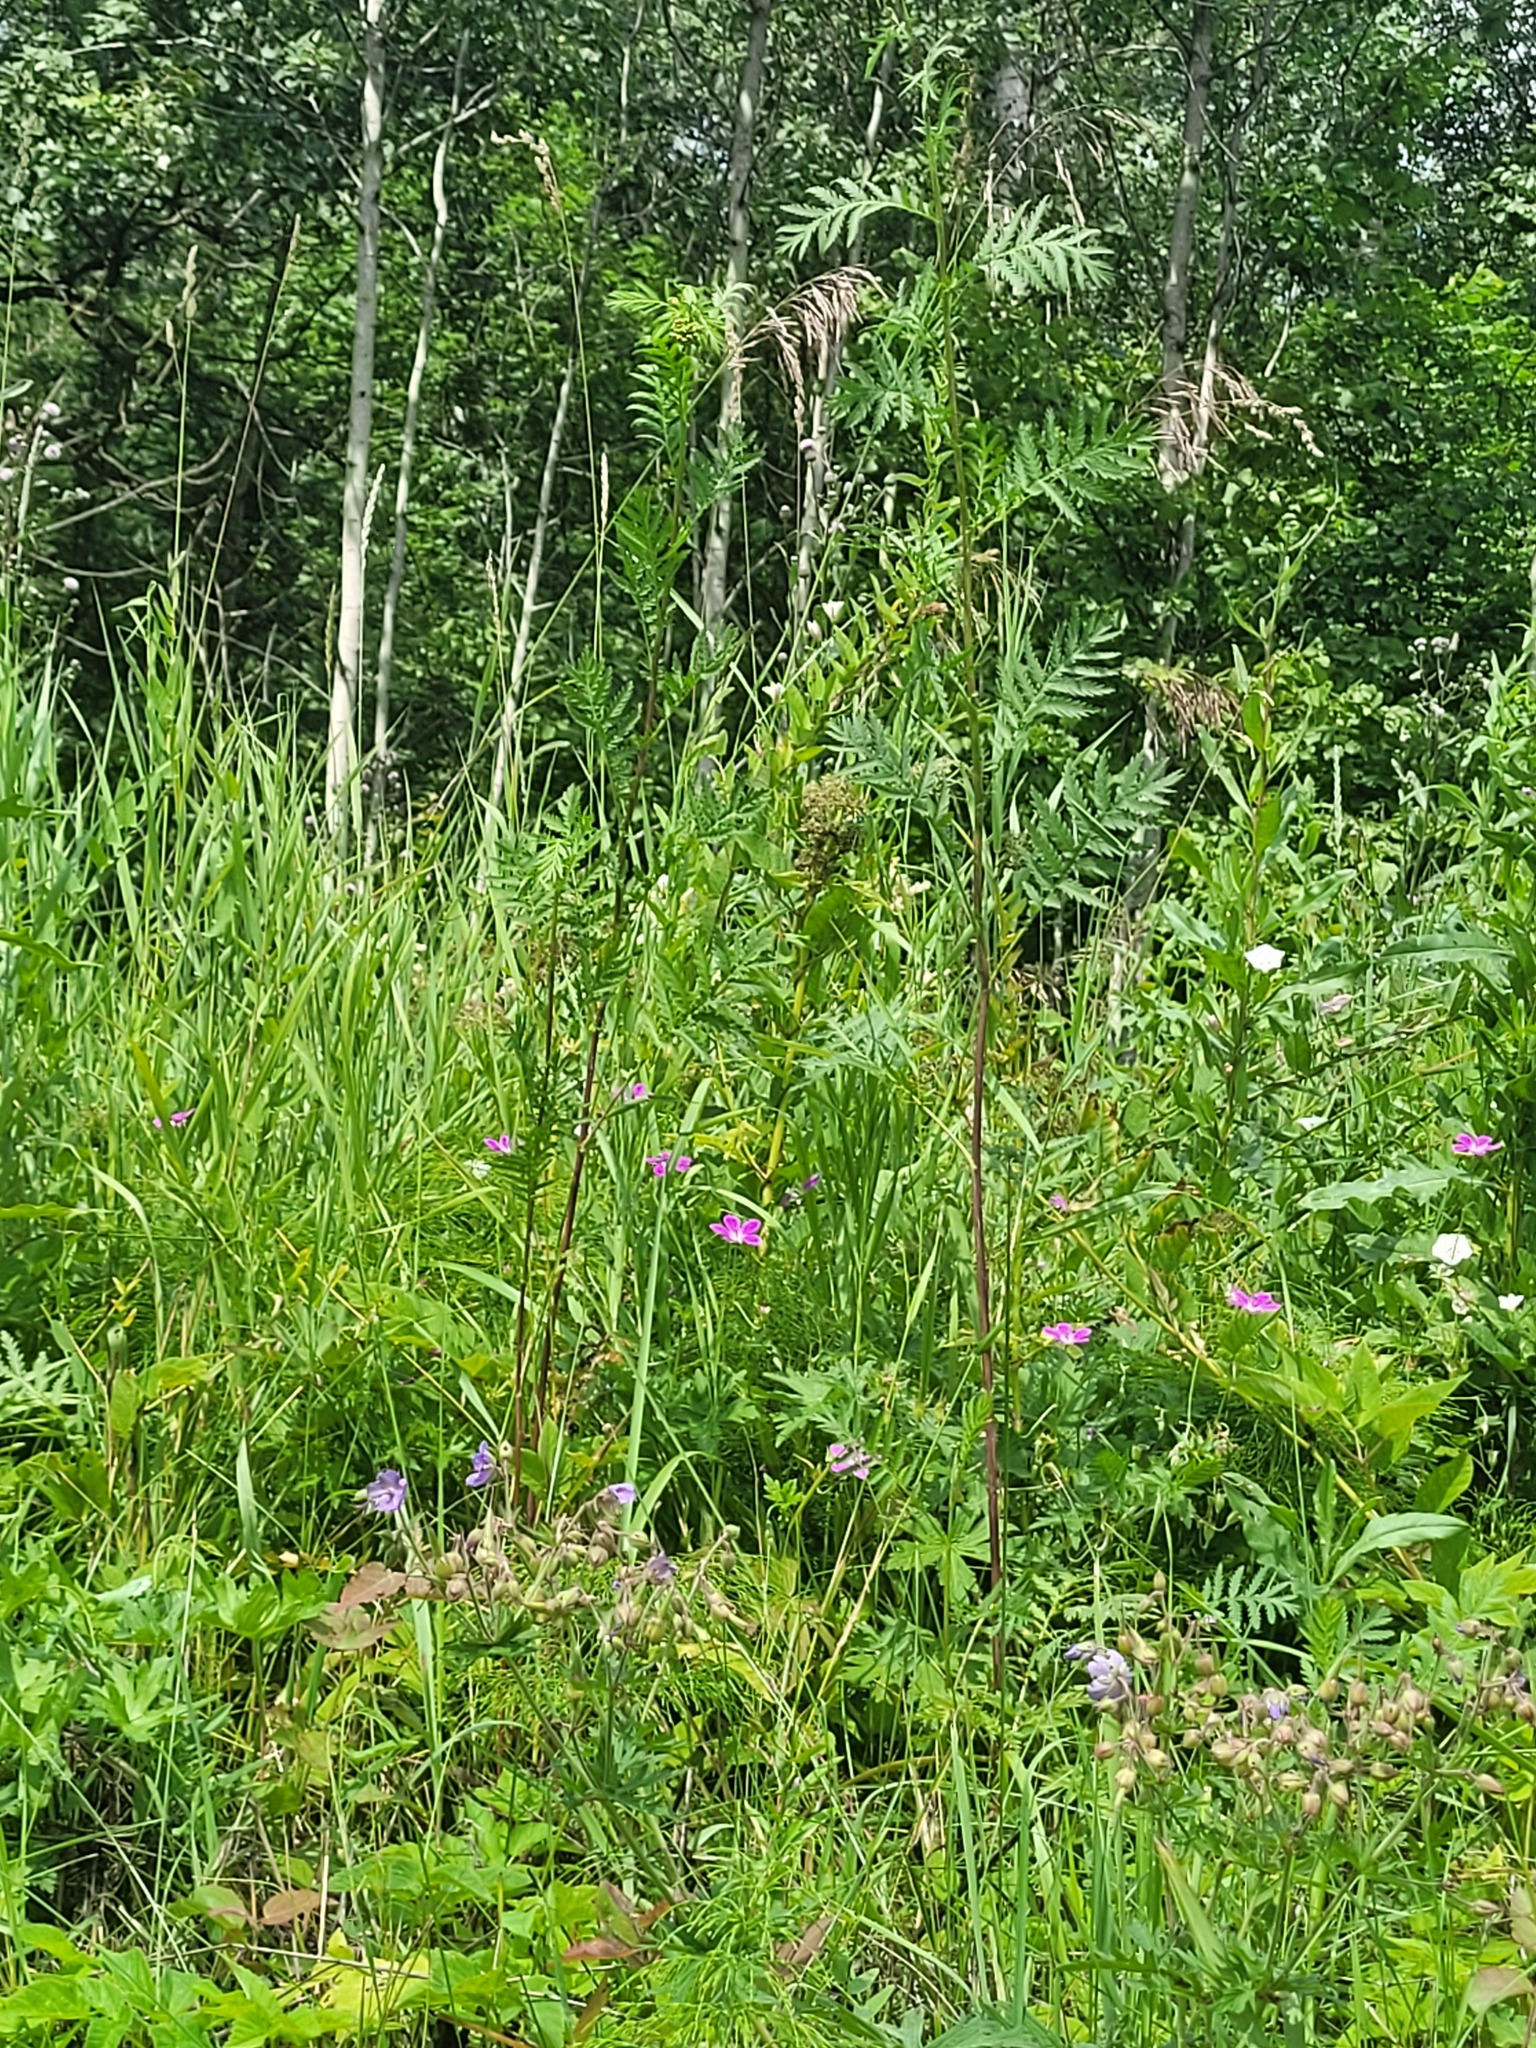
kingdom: Plantae
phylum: Tracheophyta
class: Magnoliopsida
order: Geraniales
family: Geraniaceae
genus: Geranium
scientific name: Geranium palustre
